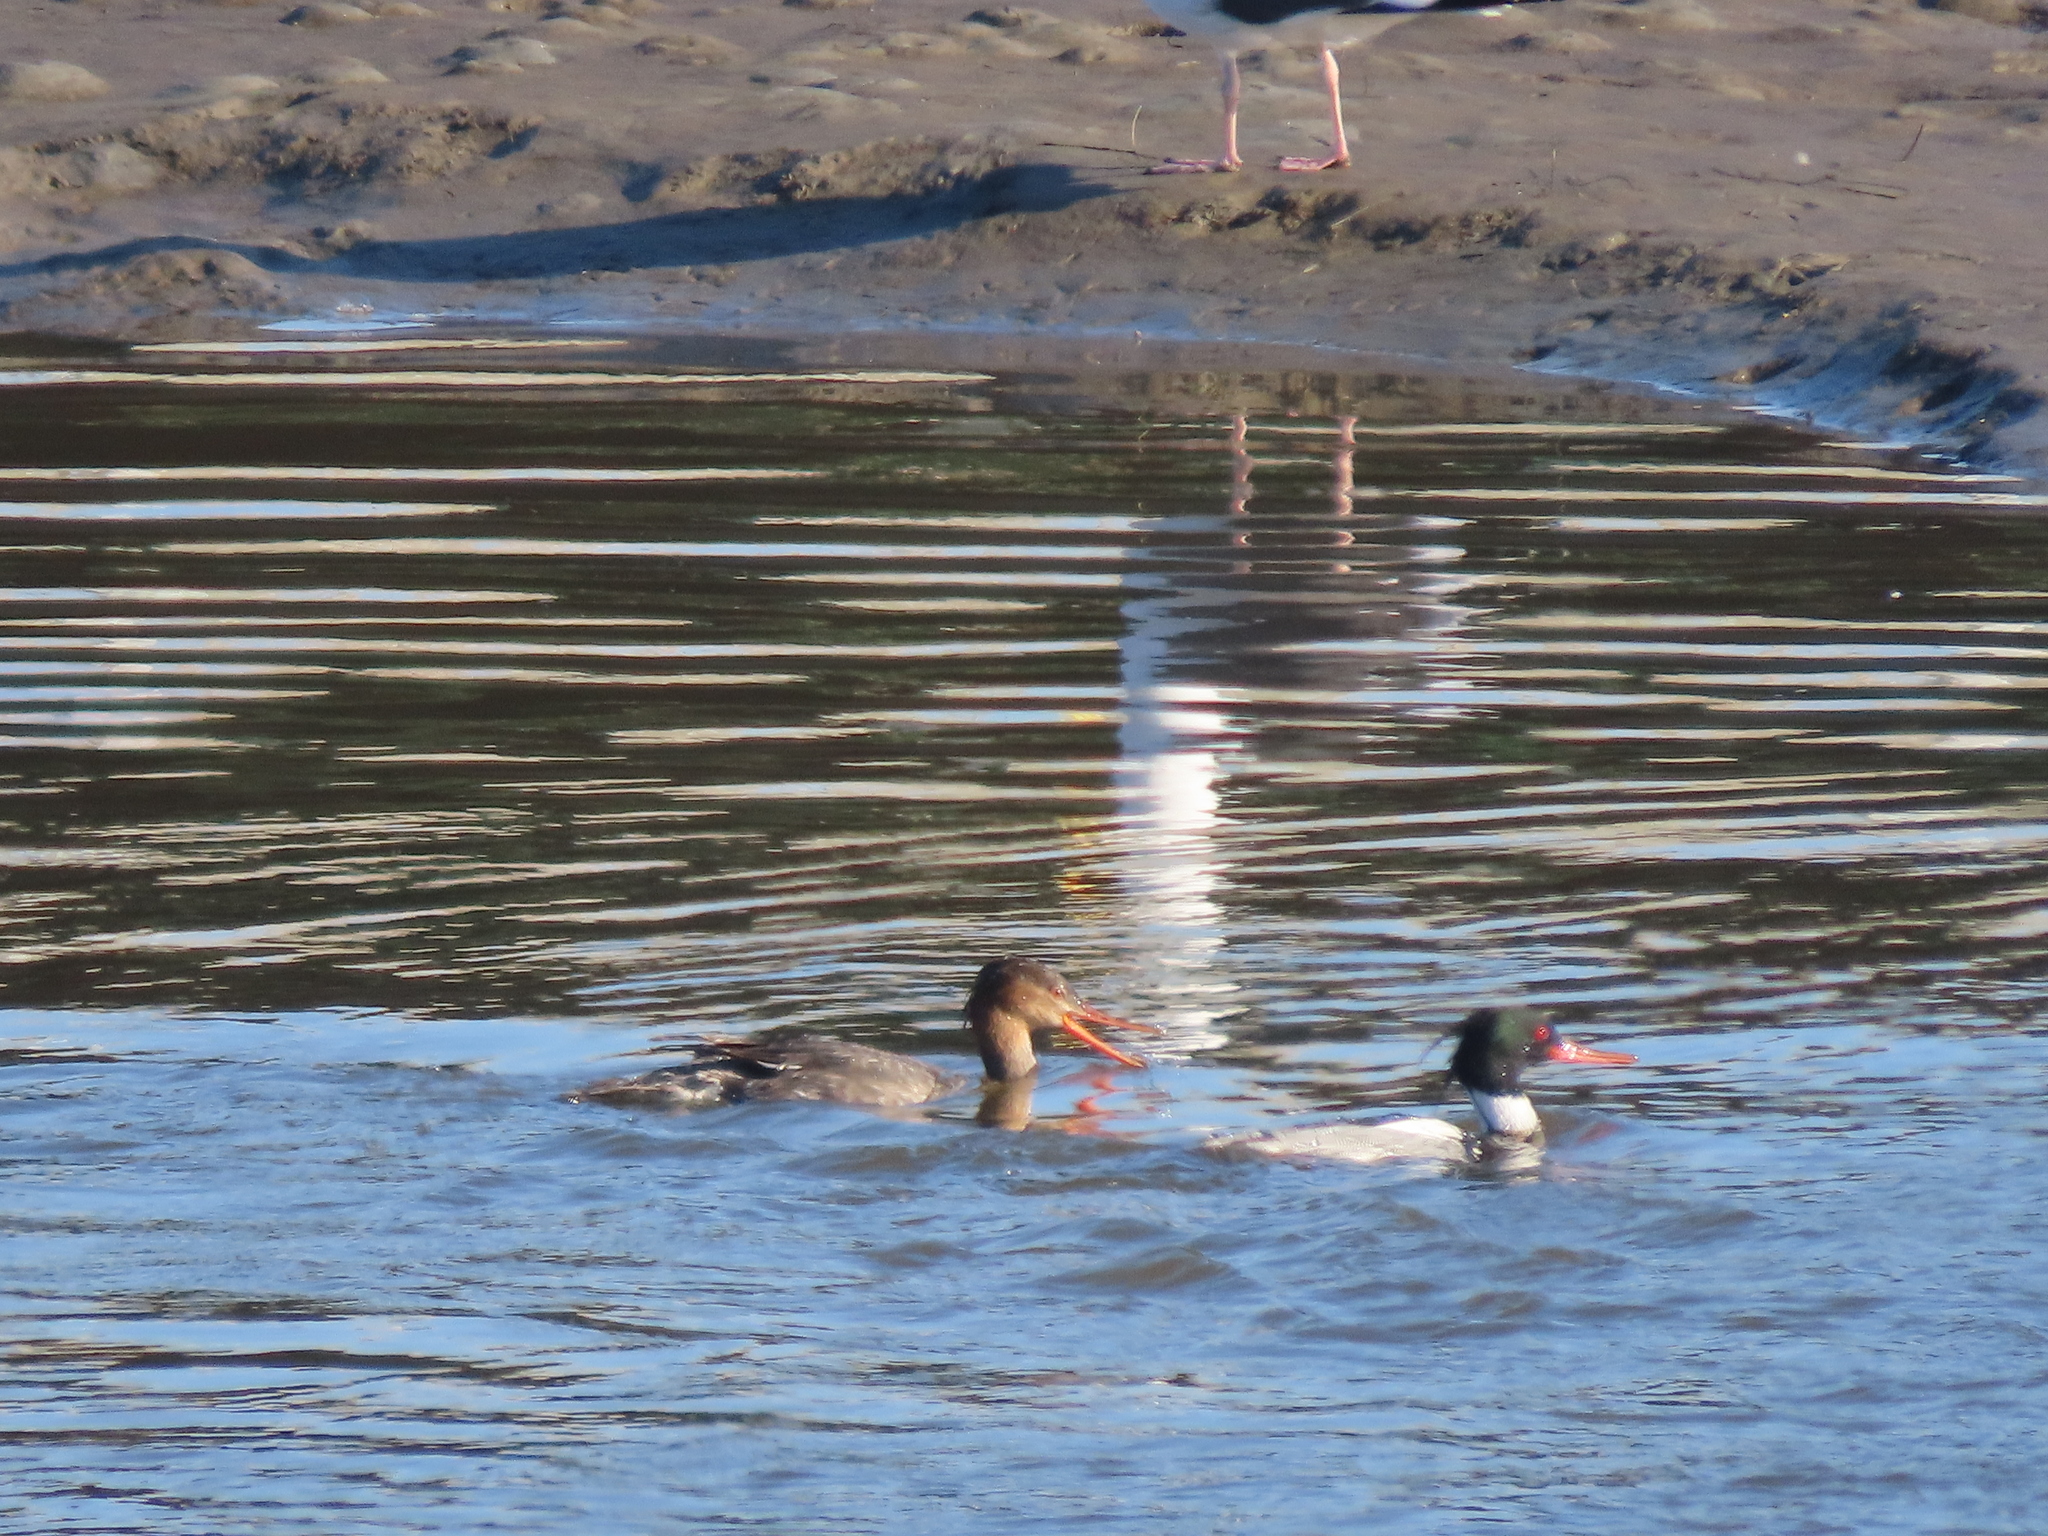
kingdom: Animalia
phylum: Chordata
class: Aves
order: Anseriformes
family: Anatidae
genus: Mergus
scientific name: Mergus serrator
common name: Red-breasted merganser
